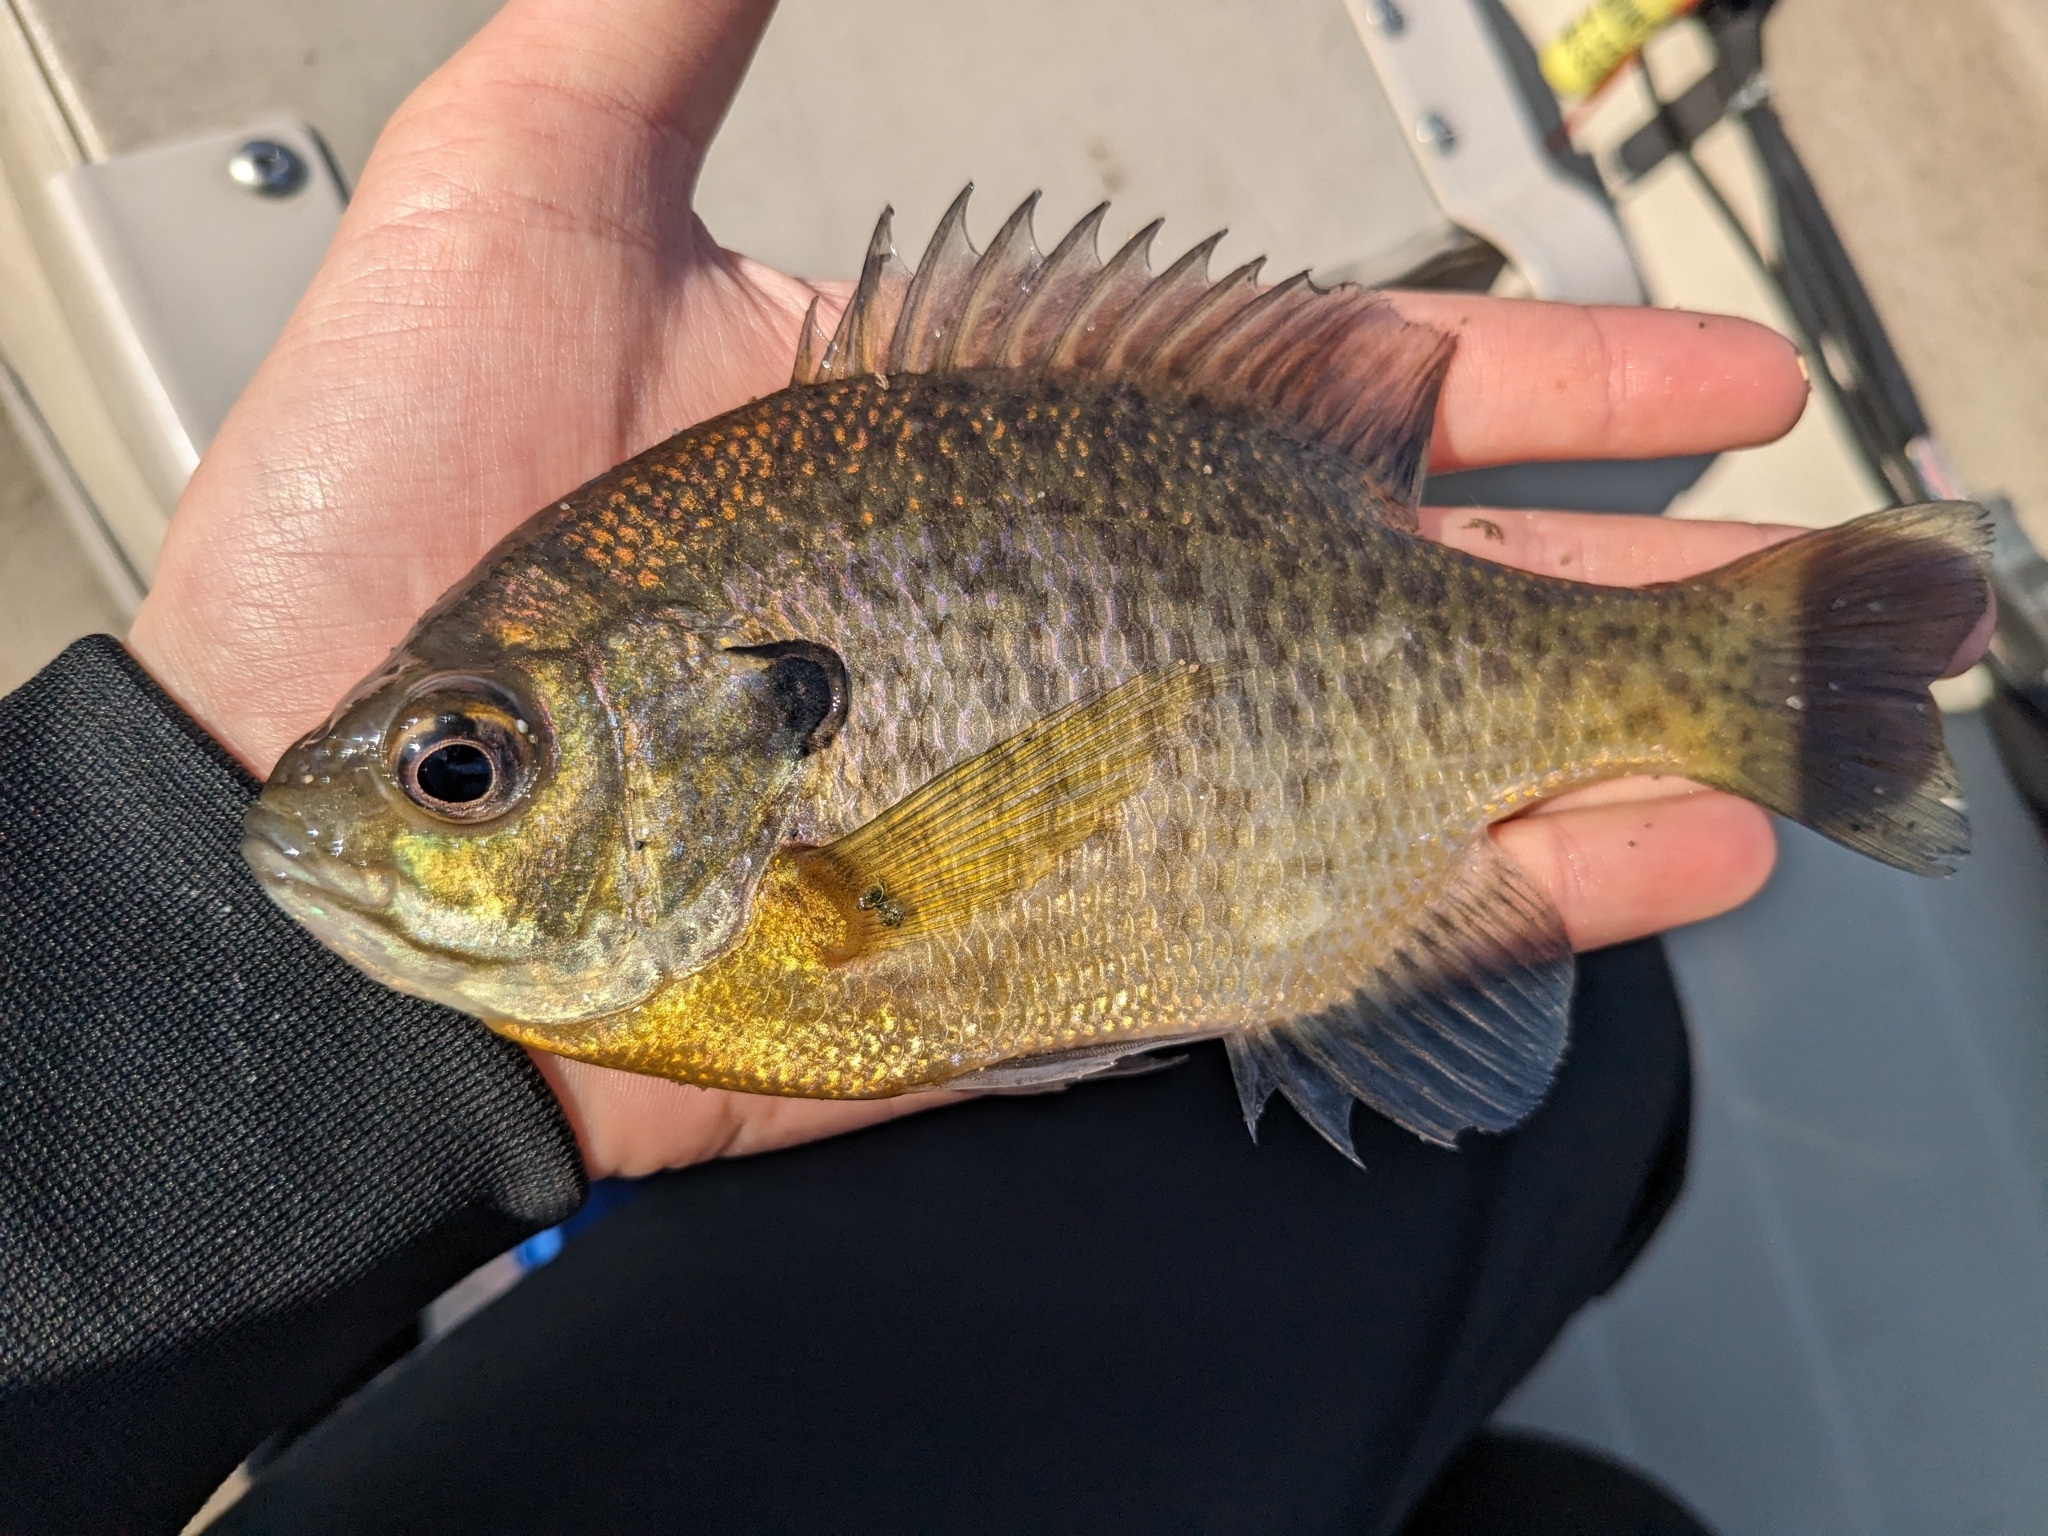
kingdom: Animalia
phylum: Chordata
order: Perciformes
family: Centrarchidae
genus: Lepomis
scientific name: Lepomis macrochirus
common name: Bluegill
